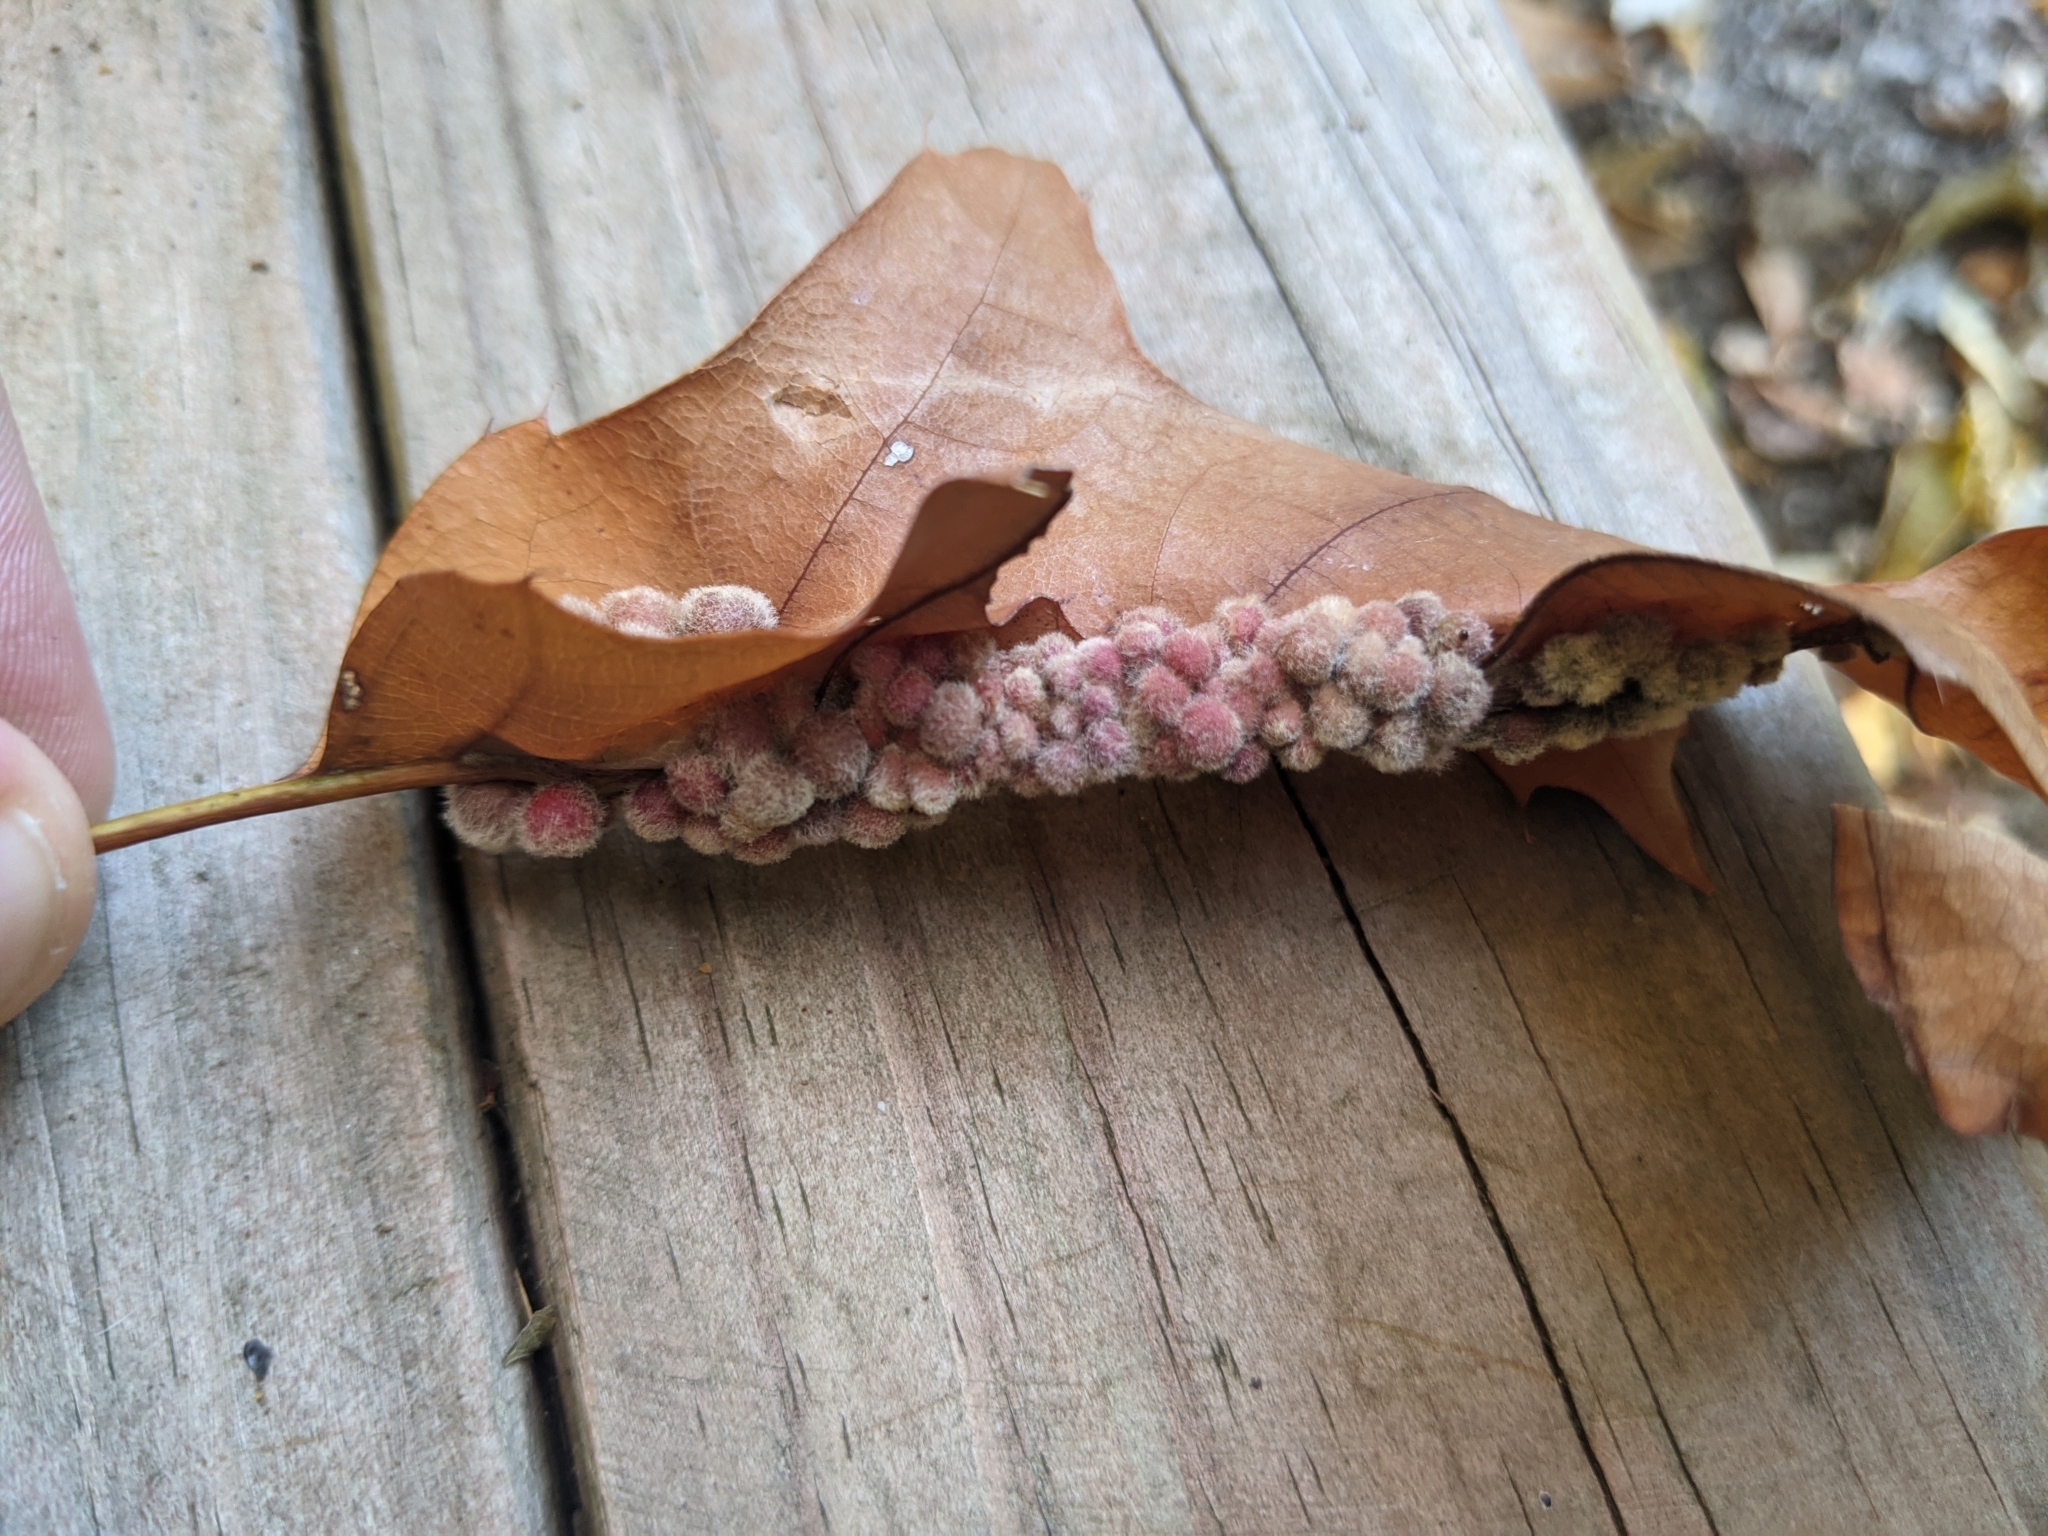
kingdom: Animalia
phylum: Arthropoda
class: Insecta
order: Hymenoptera
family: Cynipidae
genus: Callirhytis
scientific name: Callirhytis
